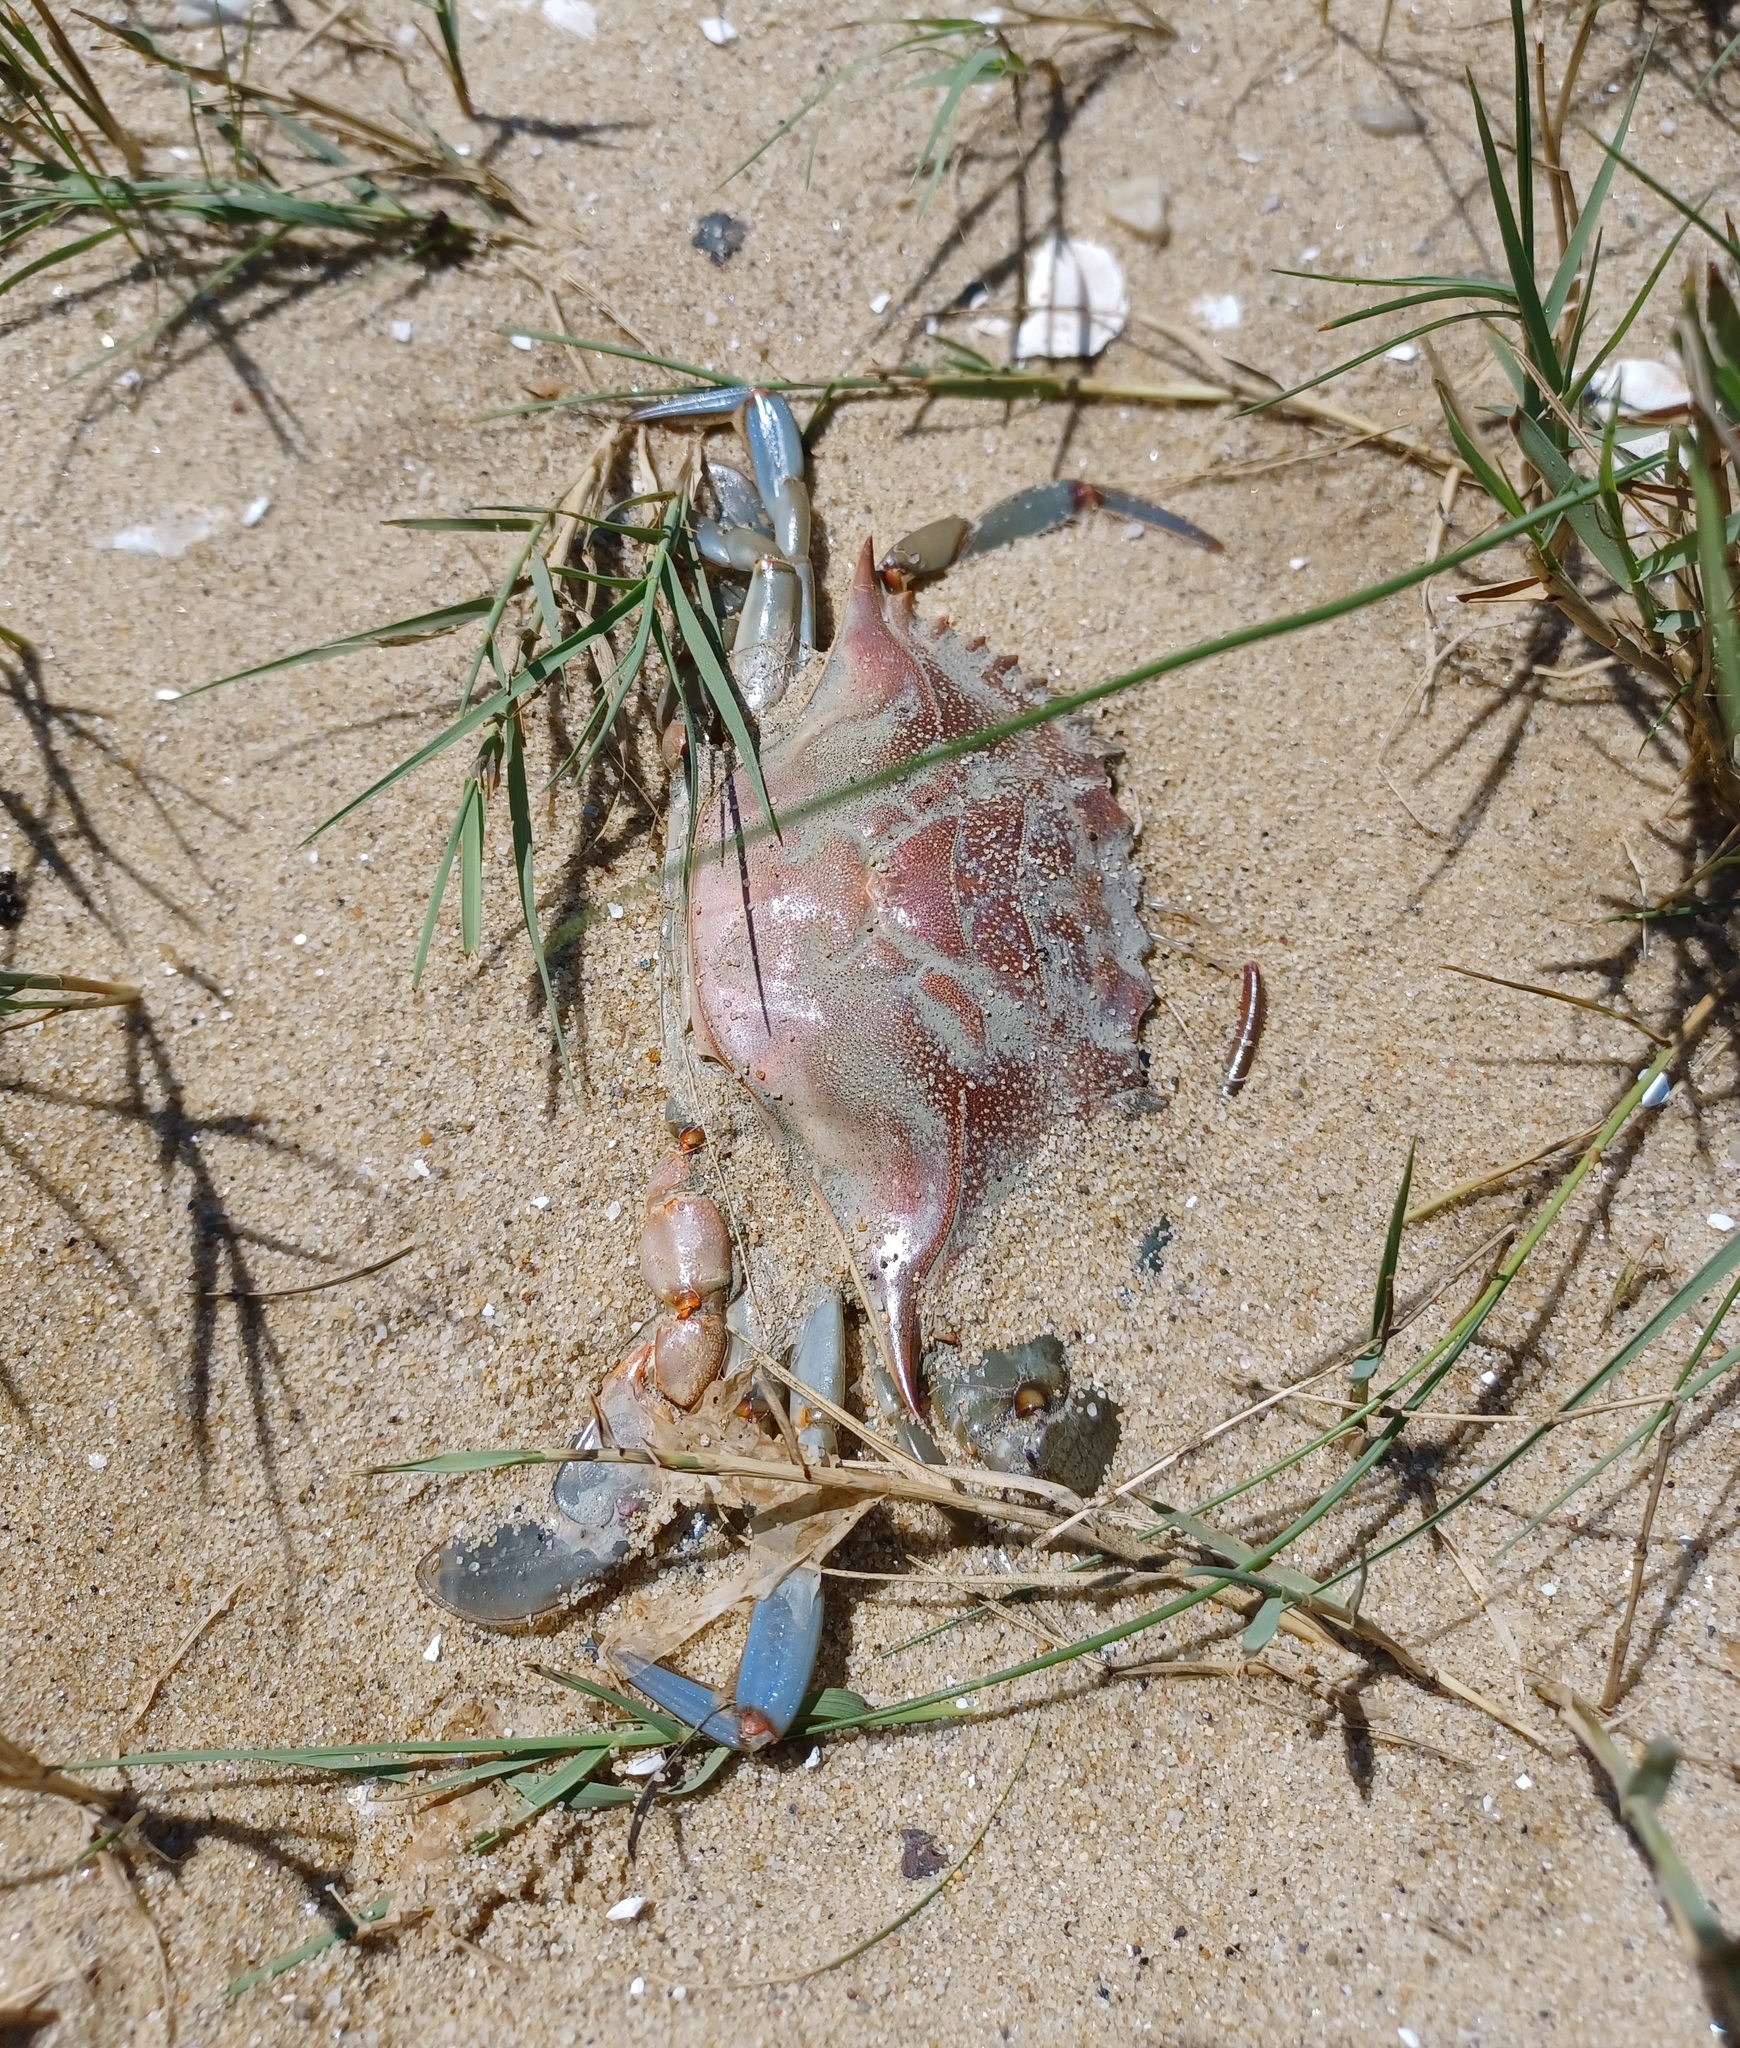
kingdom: Animalia
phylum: Arthropoda
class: Malacostraca
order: Decapoda
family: Portunidae
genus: Callinectes
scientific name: Callinectes sapidus
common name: Blue crab
